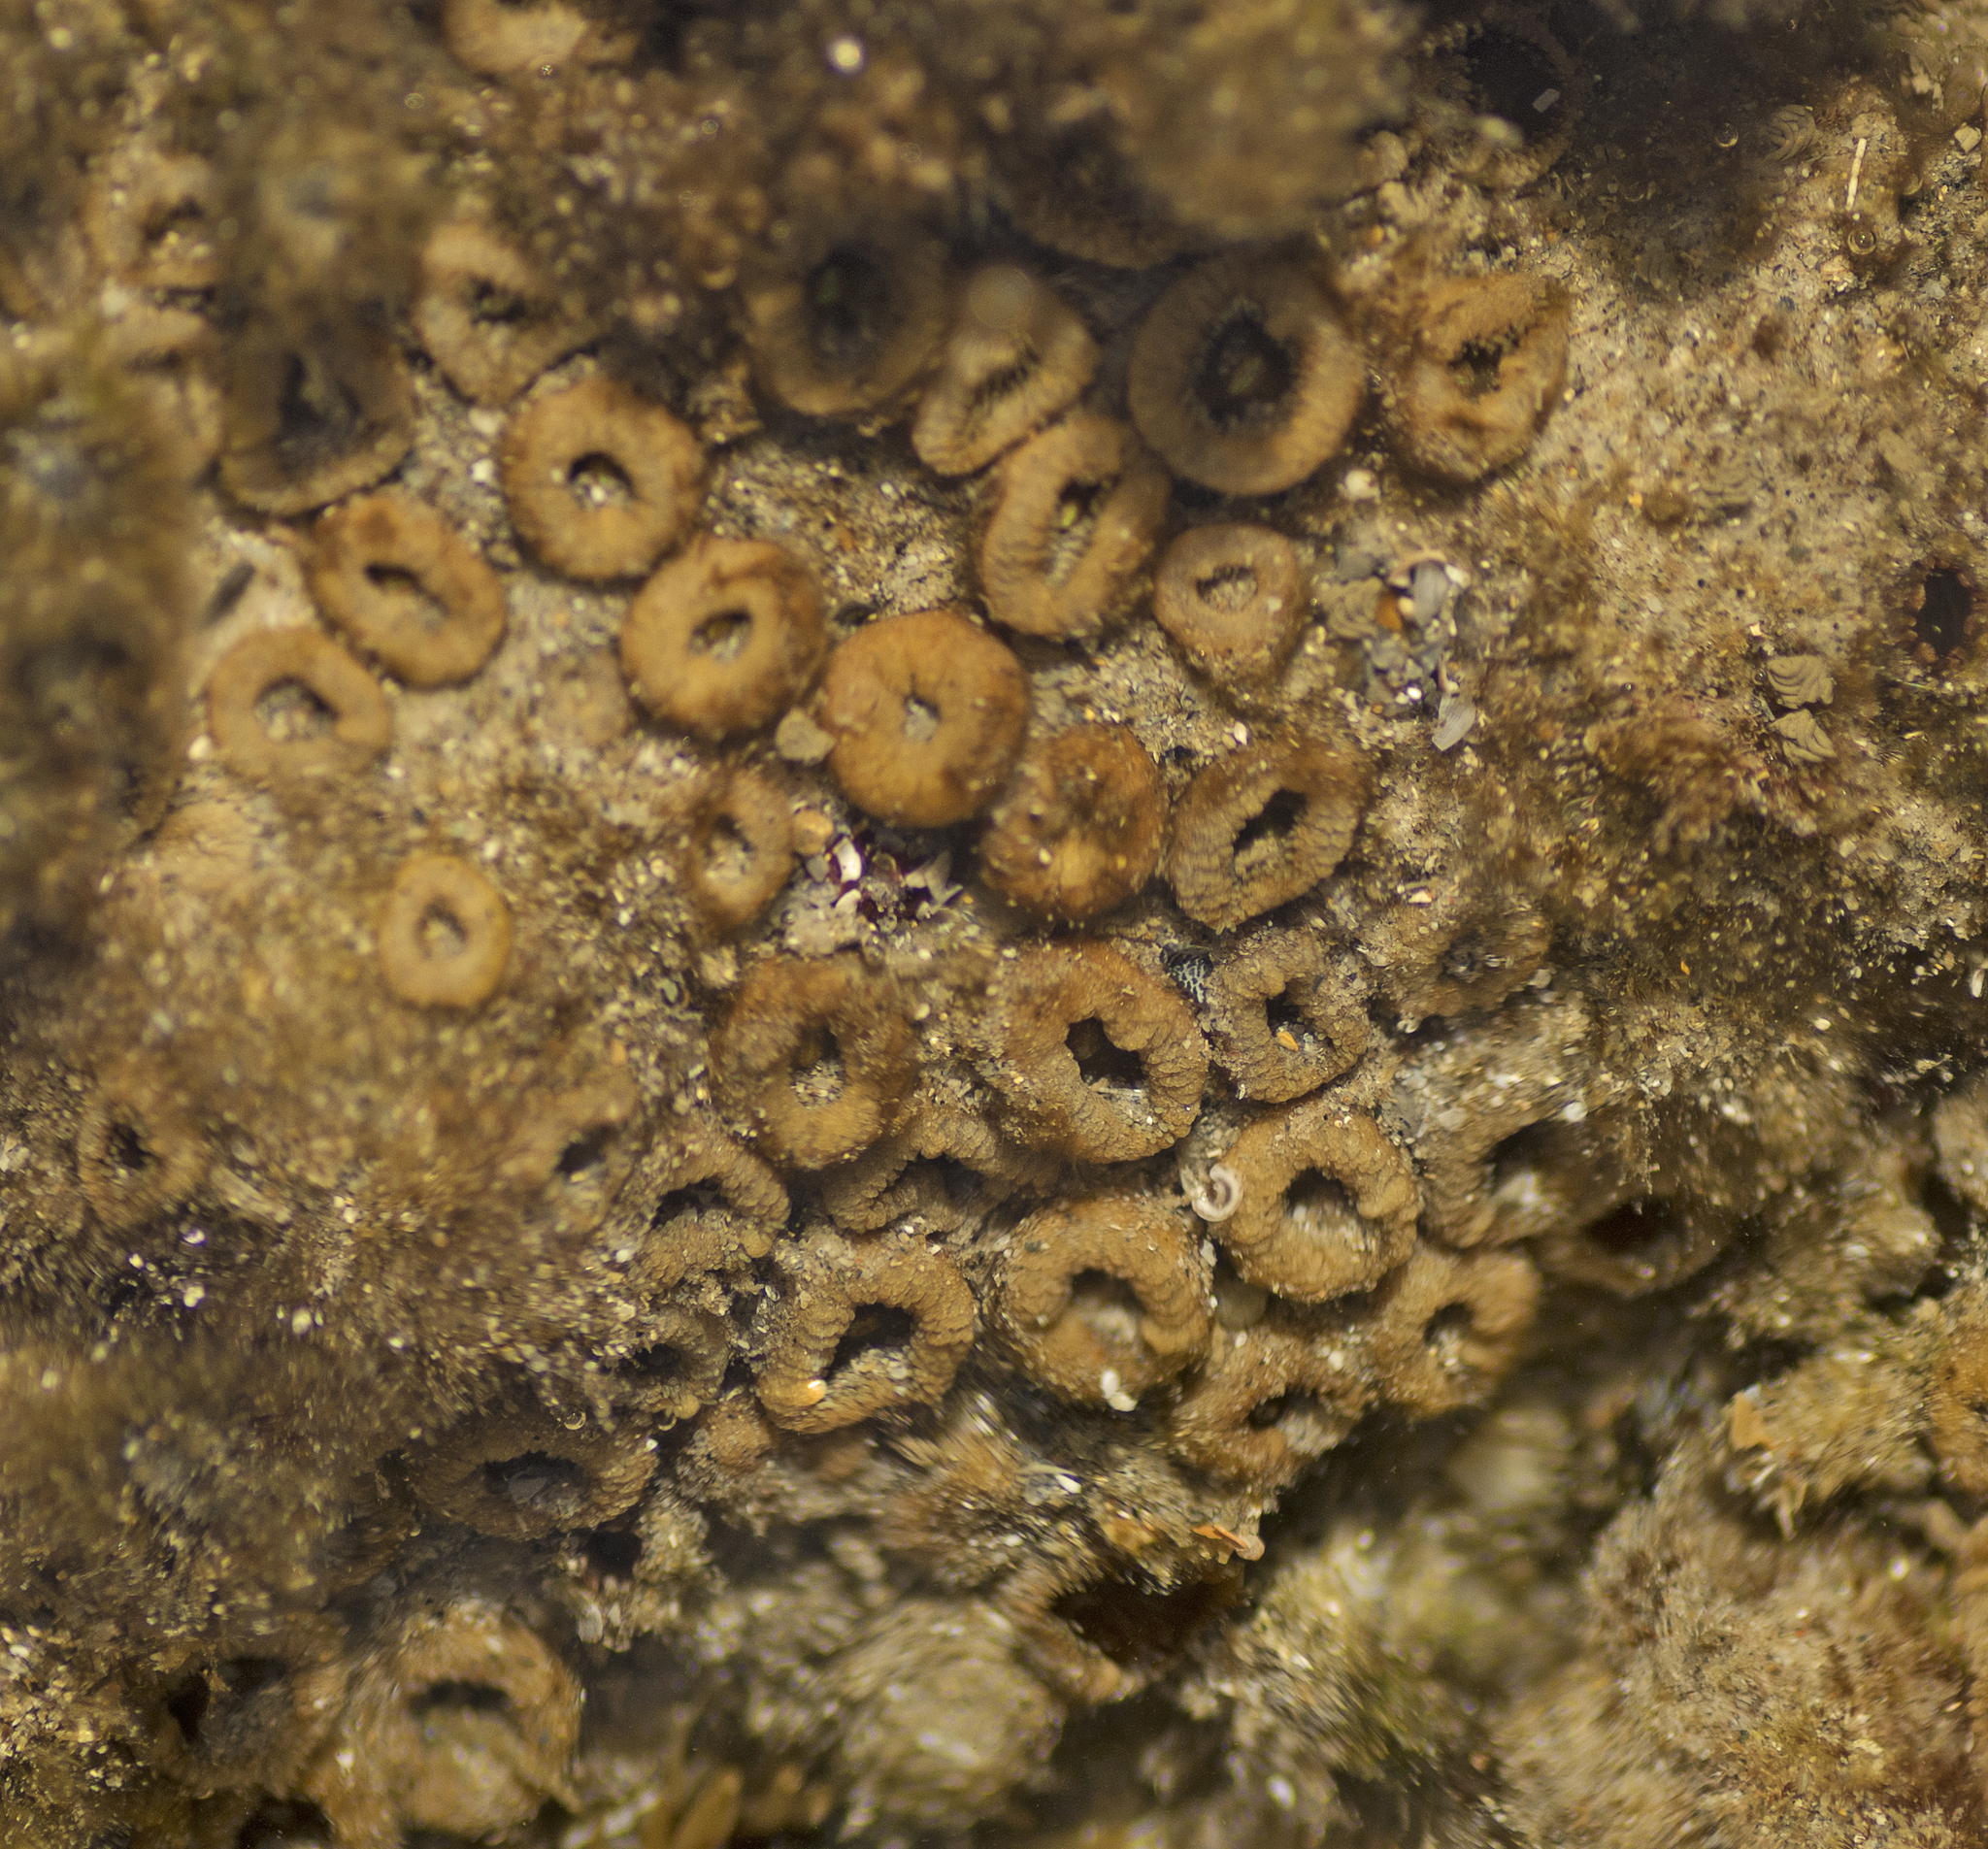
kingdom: Animalia
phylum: Cnidaria
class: Anthozoa
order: Zoantharia
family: Sphenopidae
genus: Palythoa
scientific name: Palythoa mutuki
